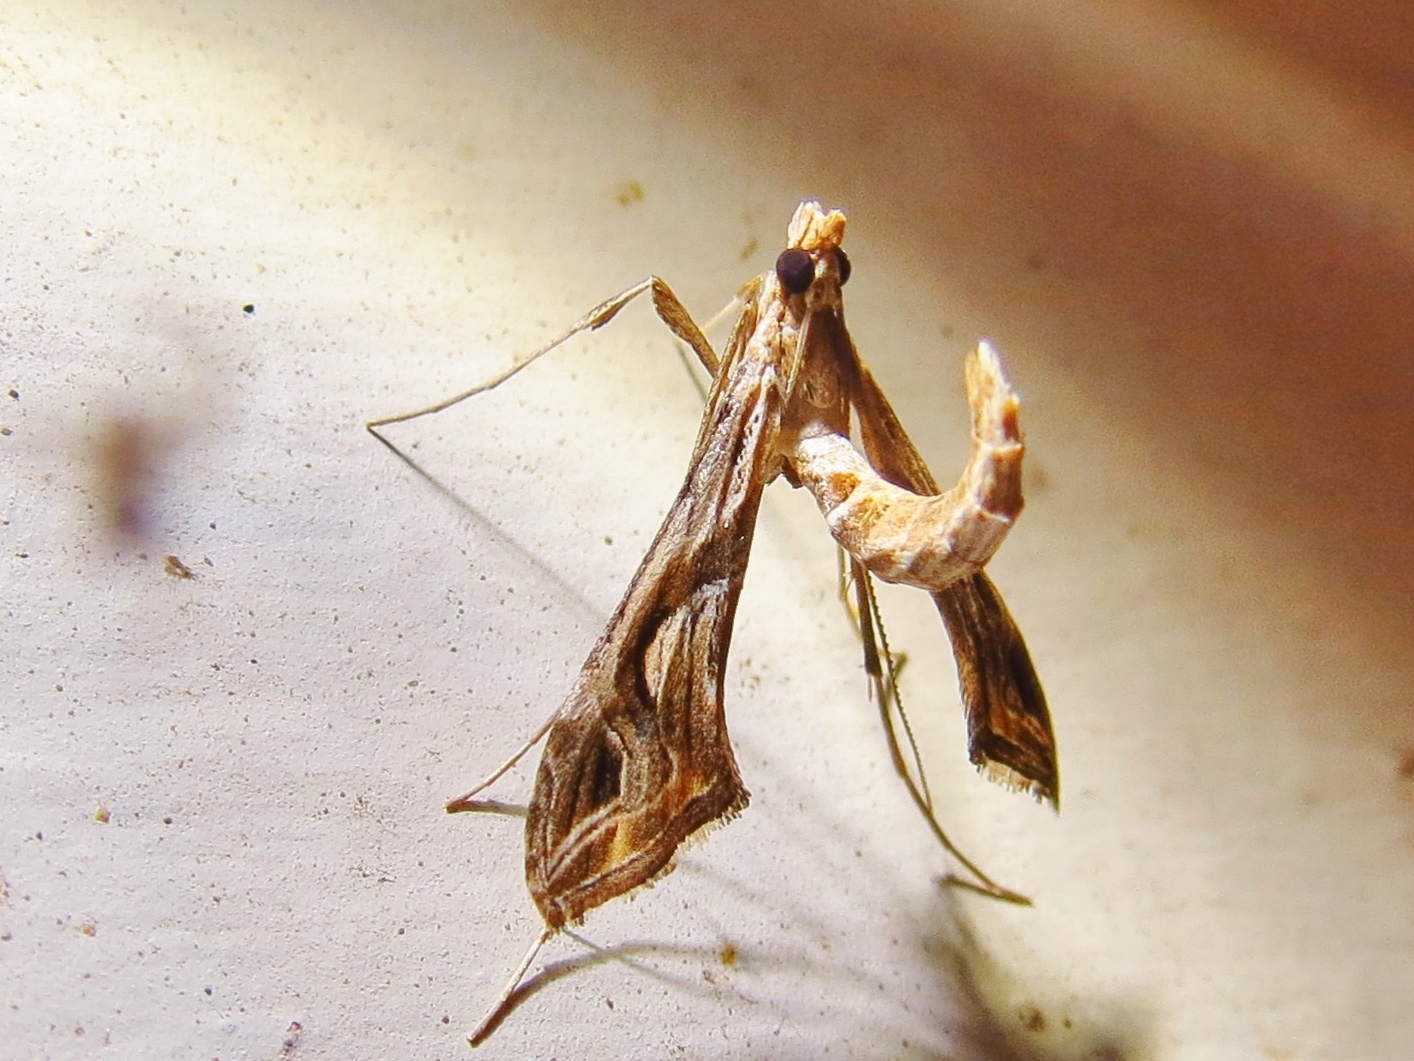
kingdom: Animalia
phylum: Arthropoda
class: Insecta
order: Lepidoptera
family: Crambidae
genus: Lineodes
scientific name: Lineodes integra
